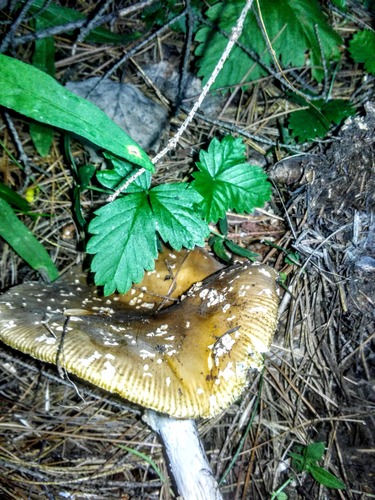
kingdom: Fungi
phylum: Basidiomycota
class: Agaricomycetes
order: Agaricales
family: Amanitaceae
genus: Amanita
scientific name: Amanita regalis
